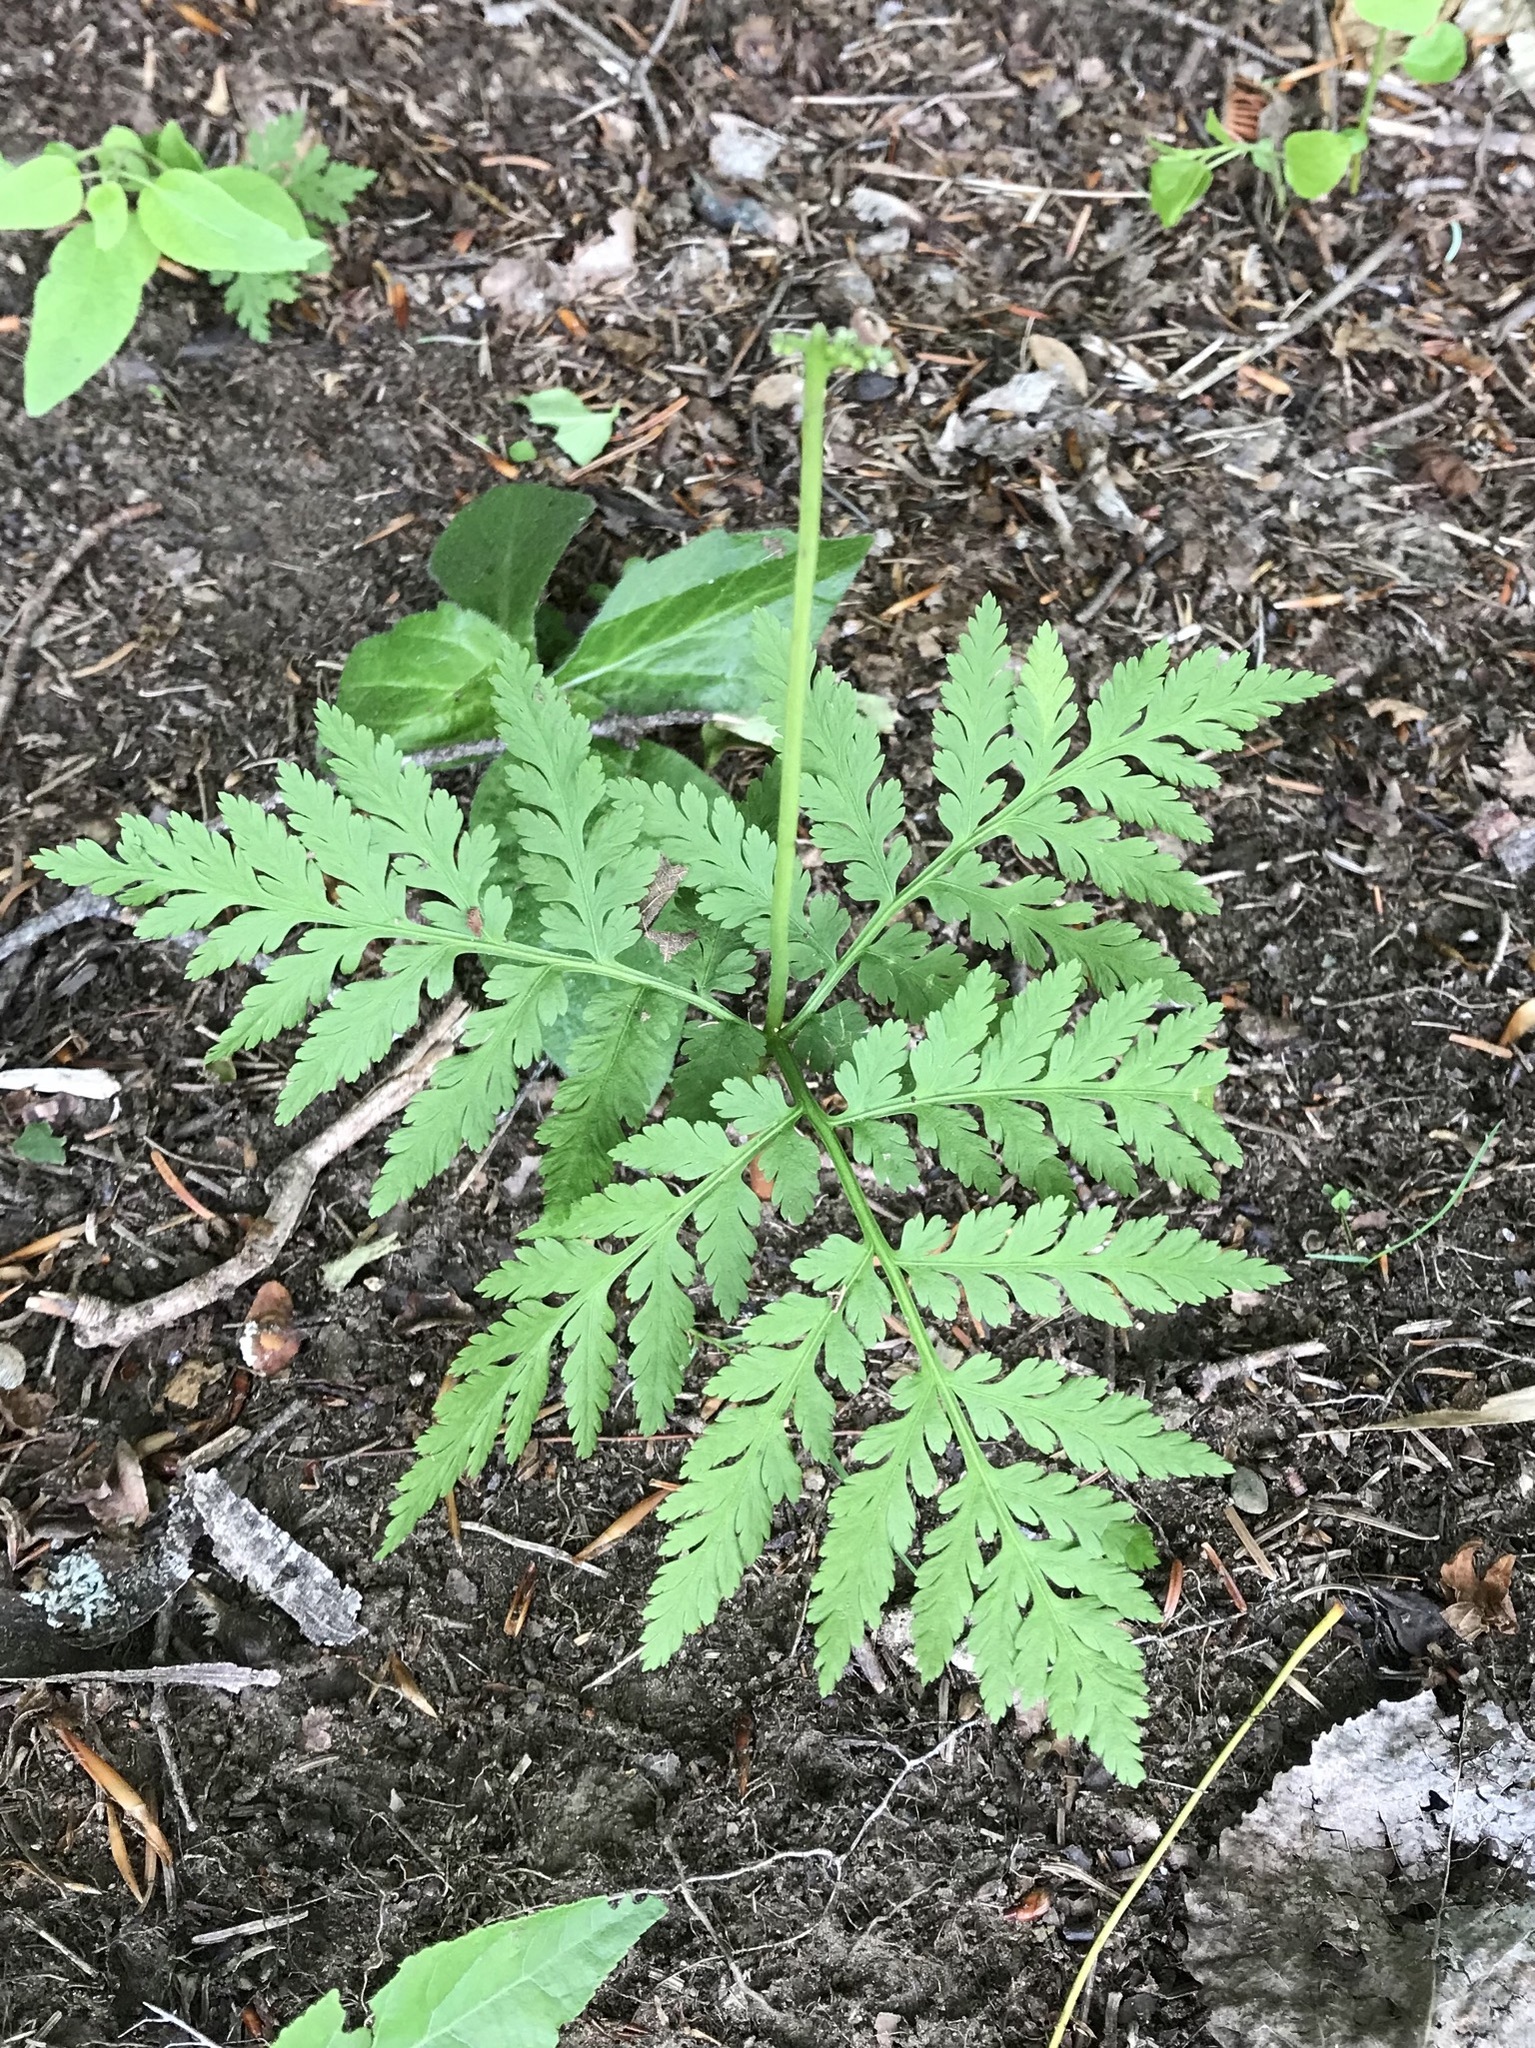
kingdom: Plantae
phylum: Tracheophyta
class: Polypodiopsida
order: Ophioglossales
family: Ophioglossaceae
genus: Botrypus
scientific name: Botrypus virginianus
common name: Common grapefern
